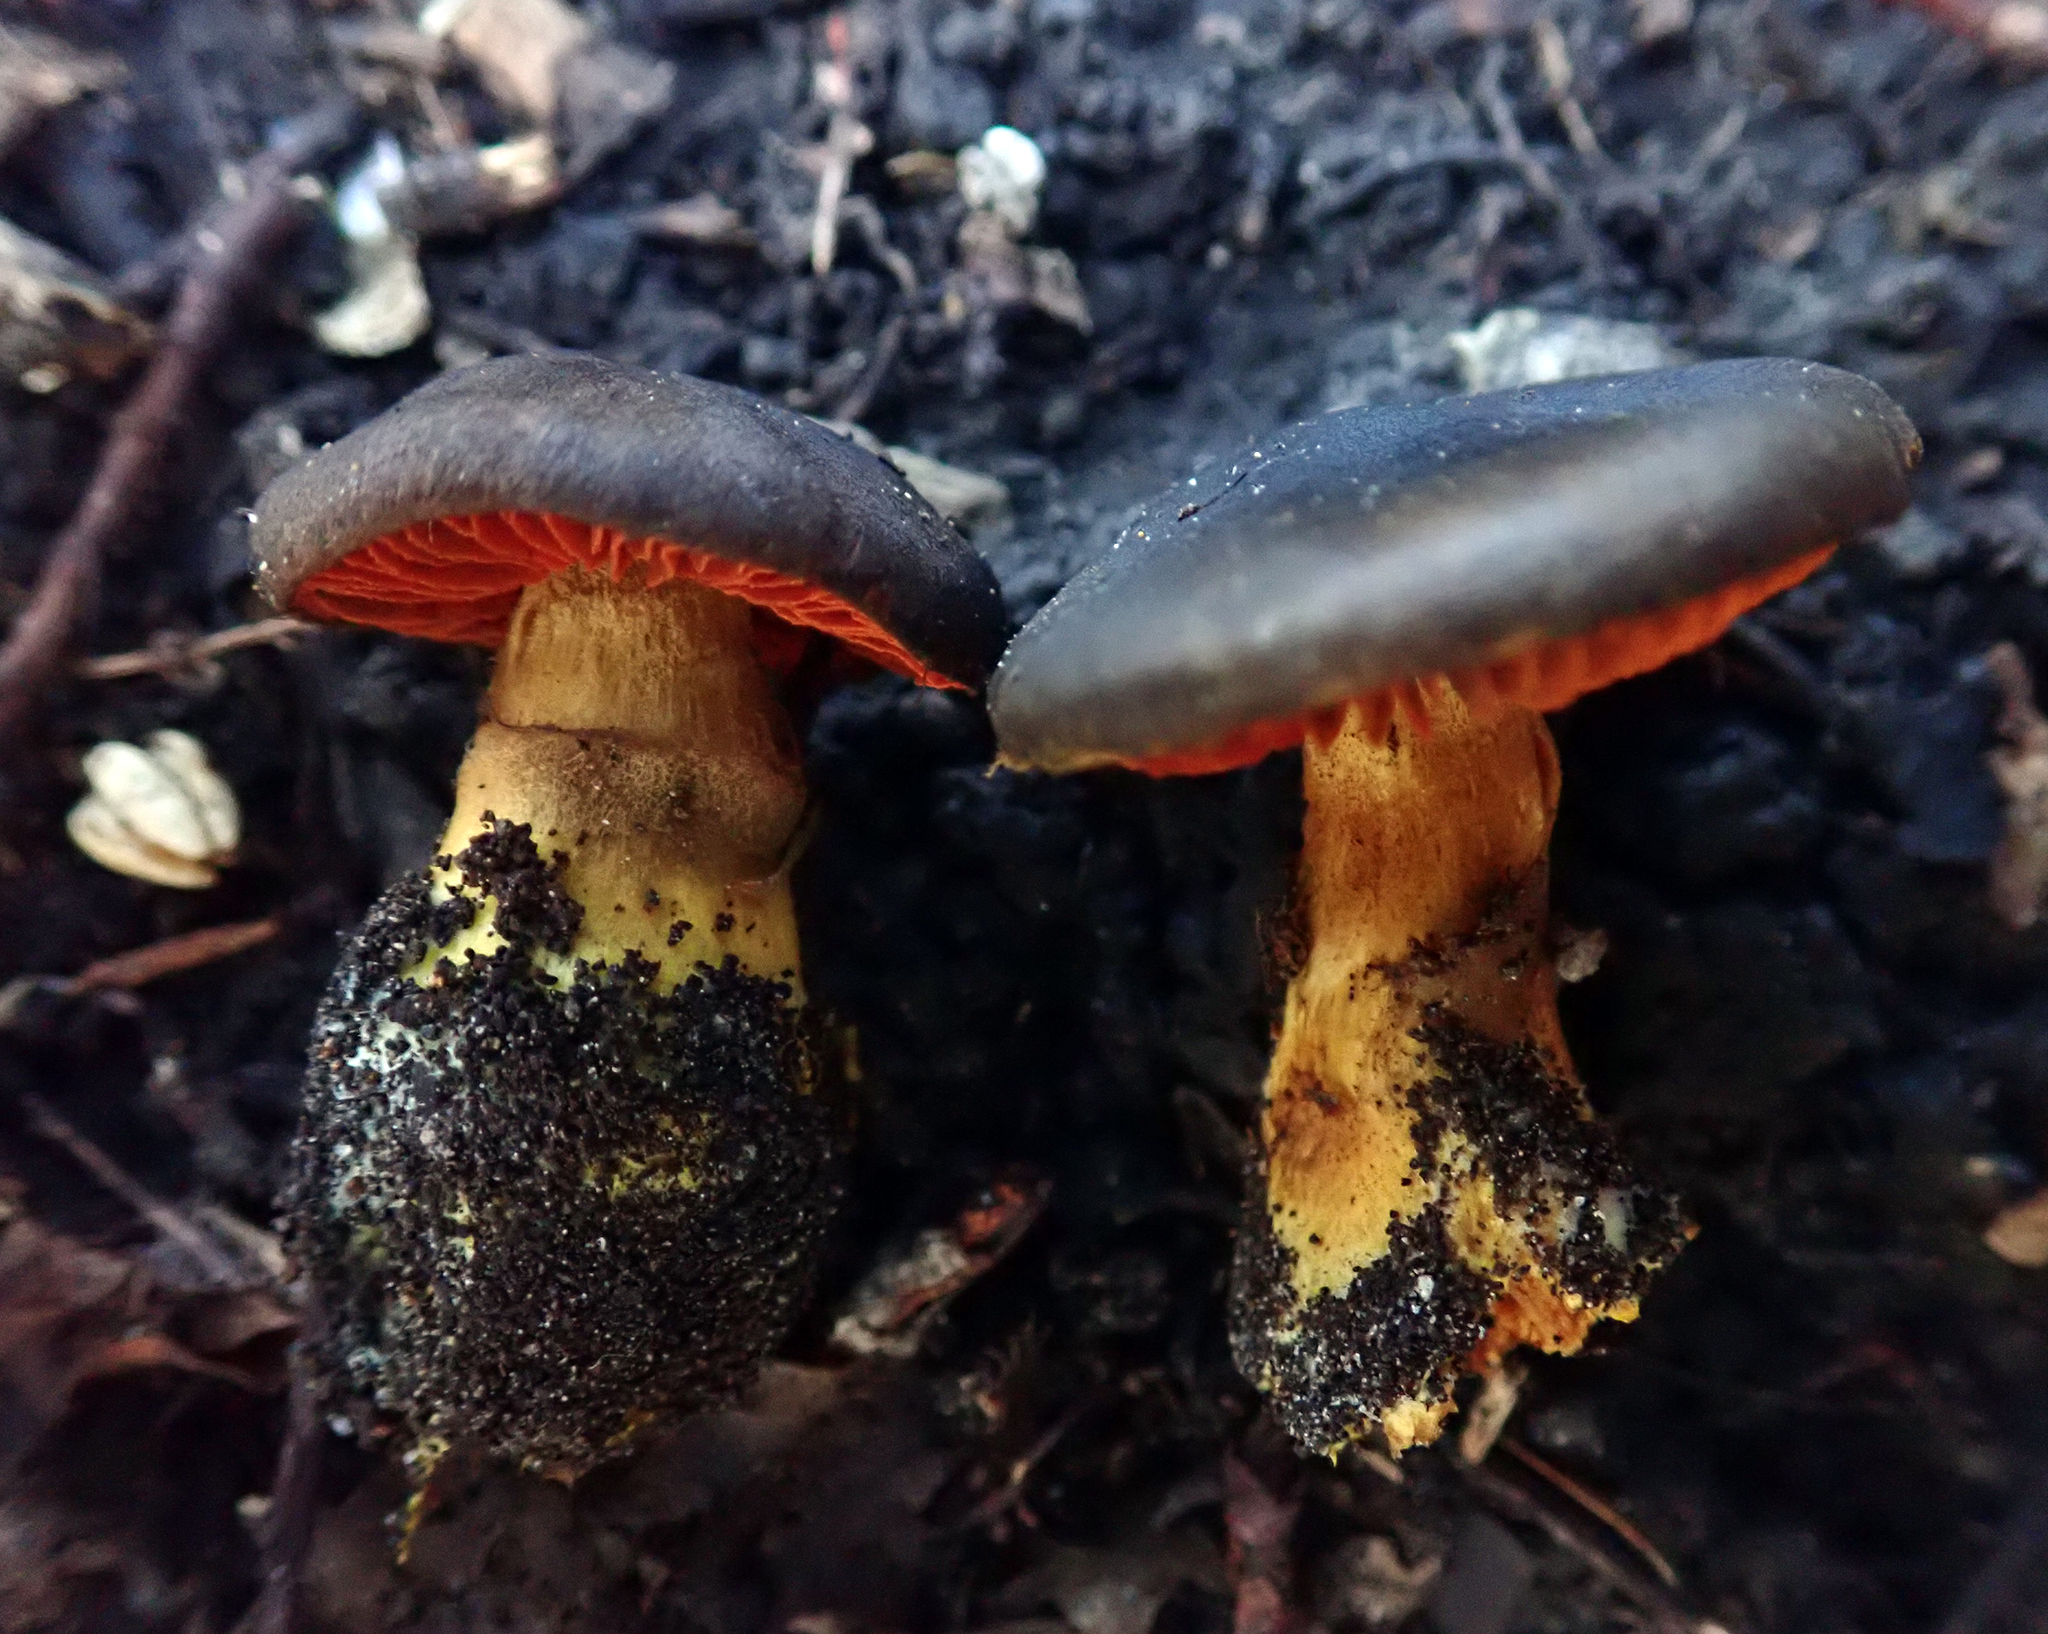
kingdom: Fungi
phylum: Basidiomycota
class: Agaricomycetes
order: Agaricales
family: Cortinariaceae
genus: Cortinarius
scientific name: Cortinarius persplendidus
